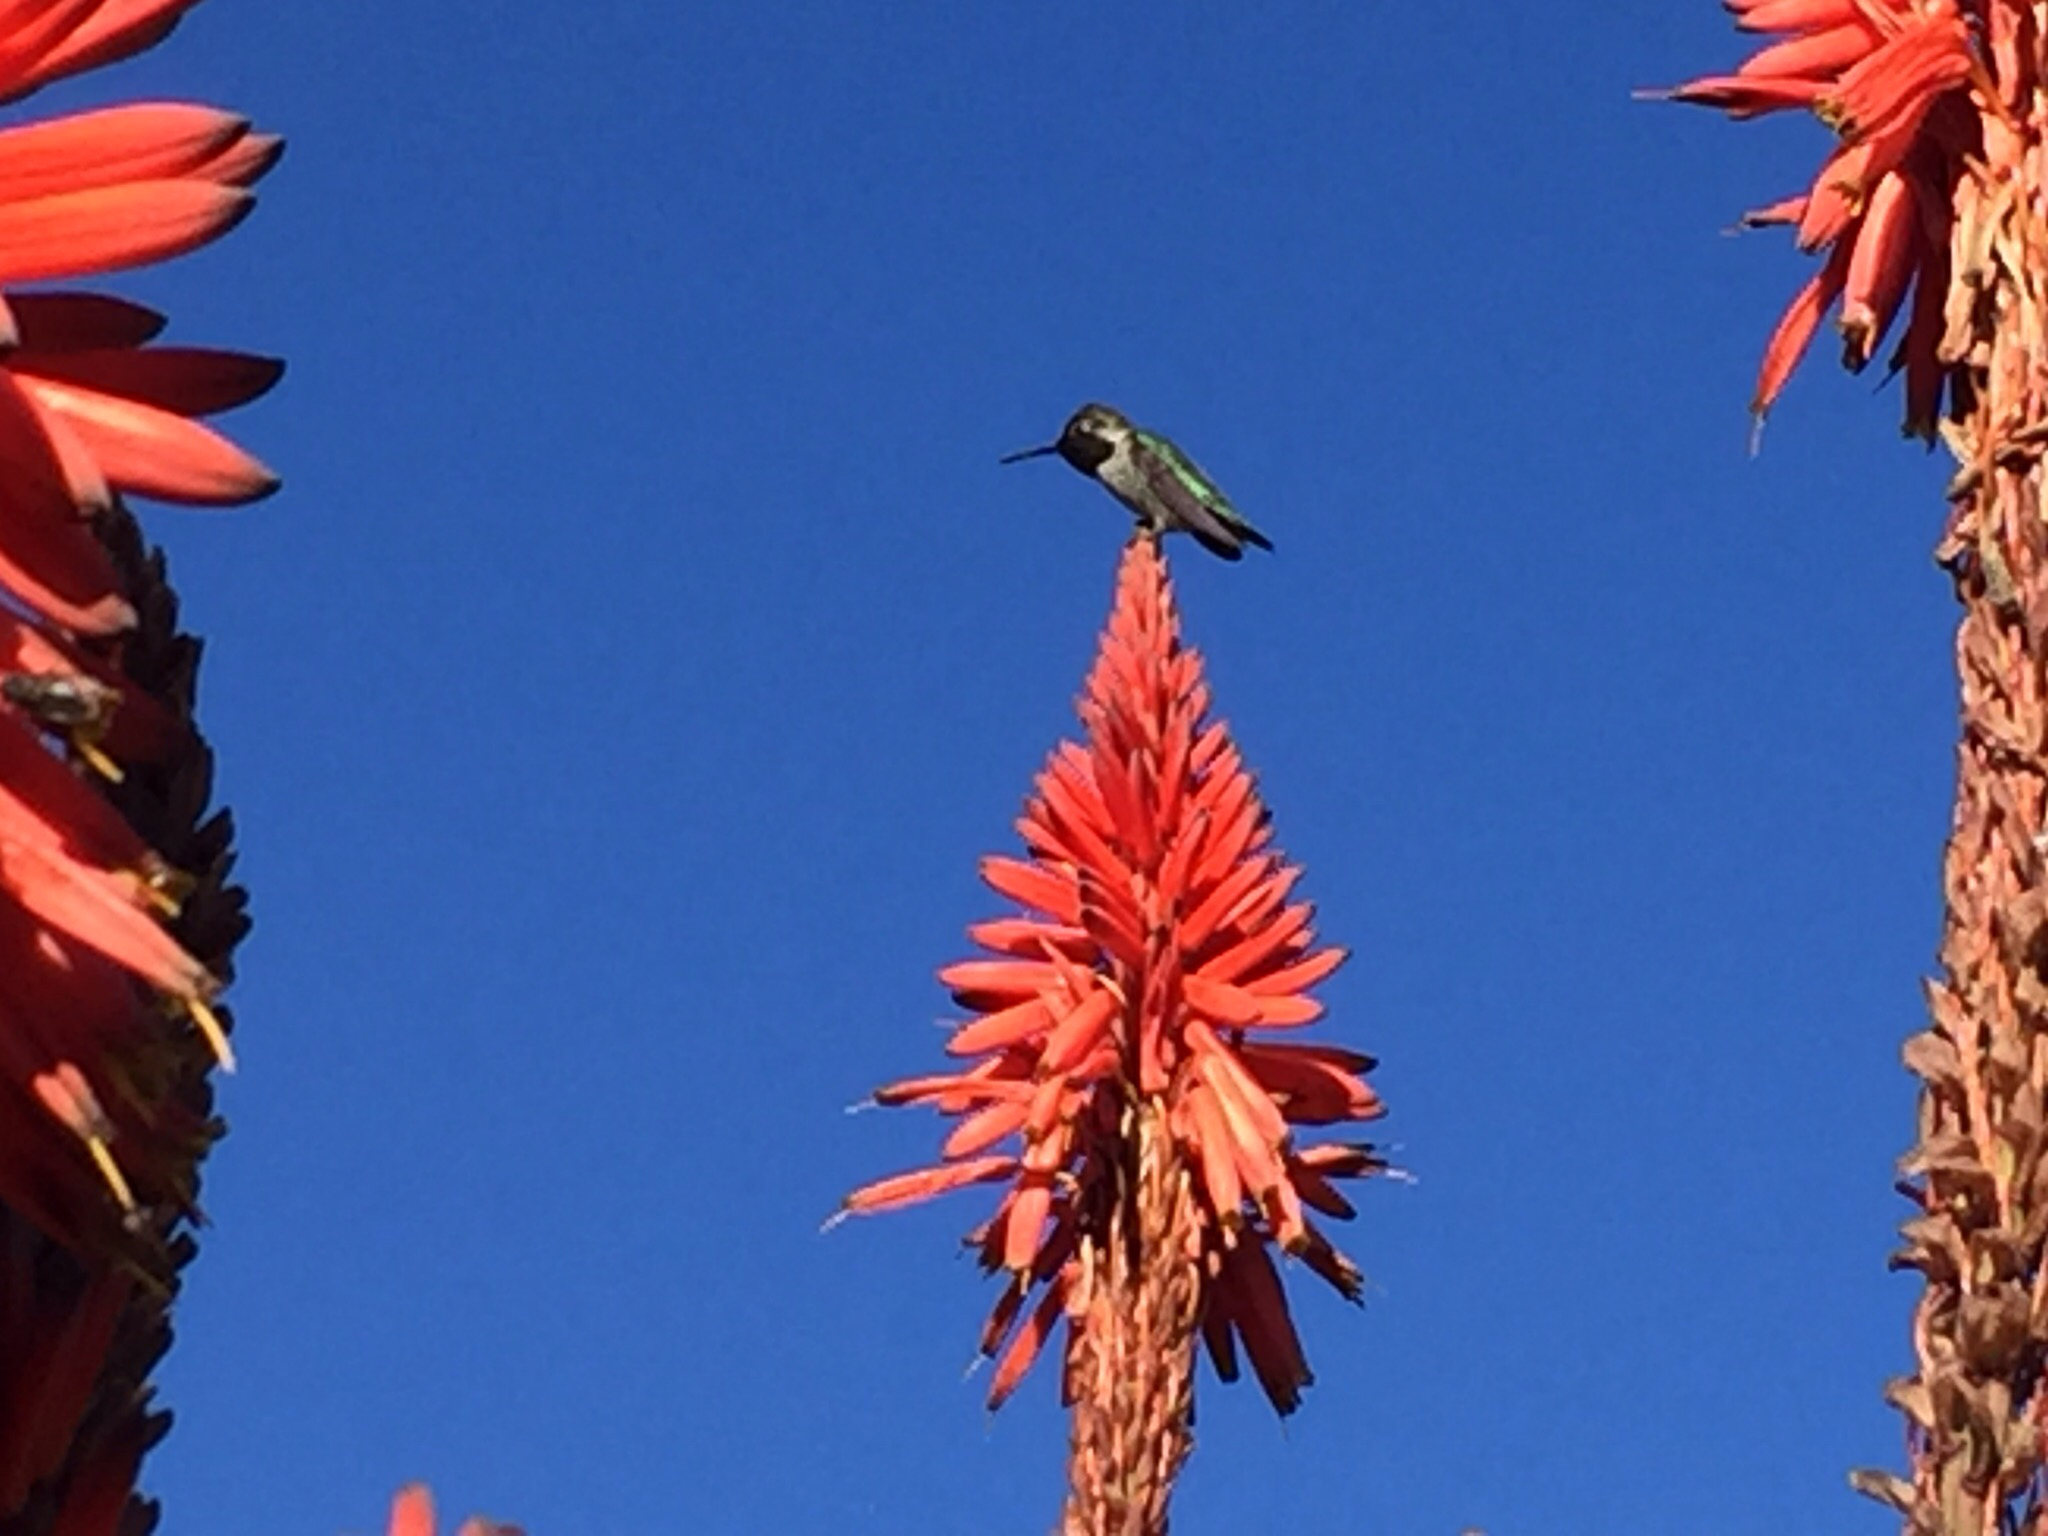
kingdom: Animalia
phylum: Chordata
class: Aves
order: Apodiformes
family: Trochilidae
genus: Calypte
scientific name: Calypte anna
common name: Anna's hummingbird
